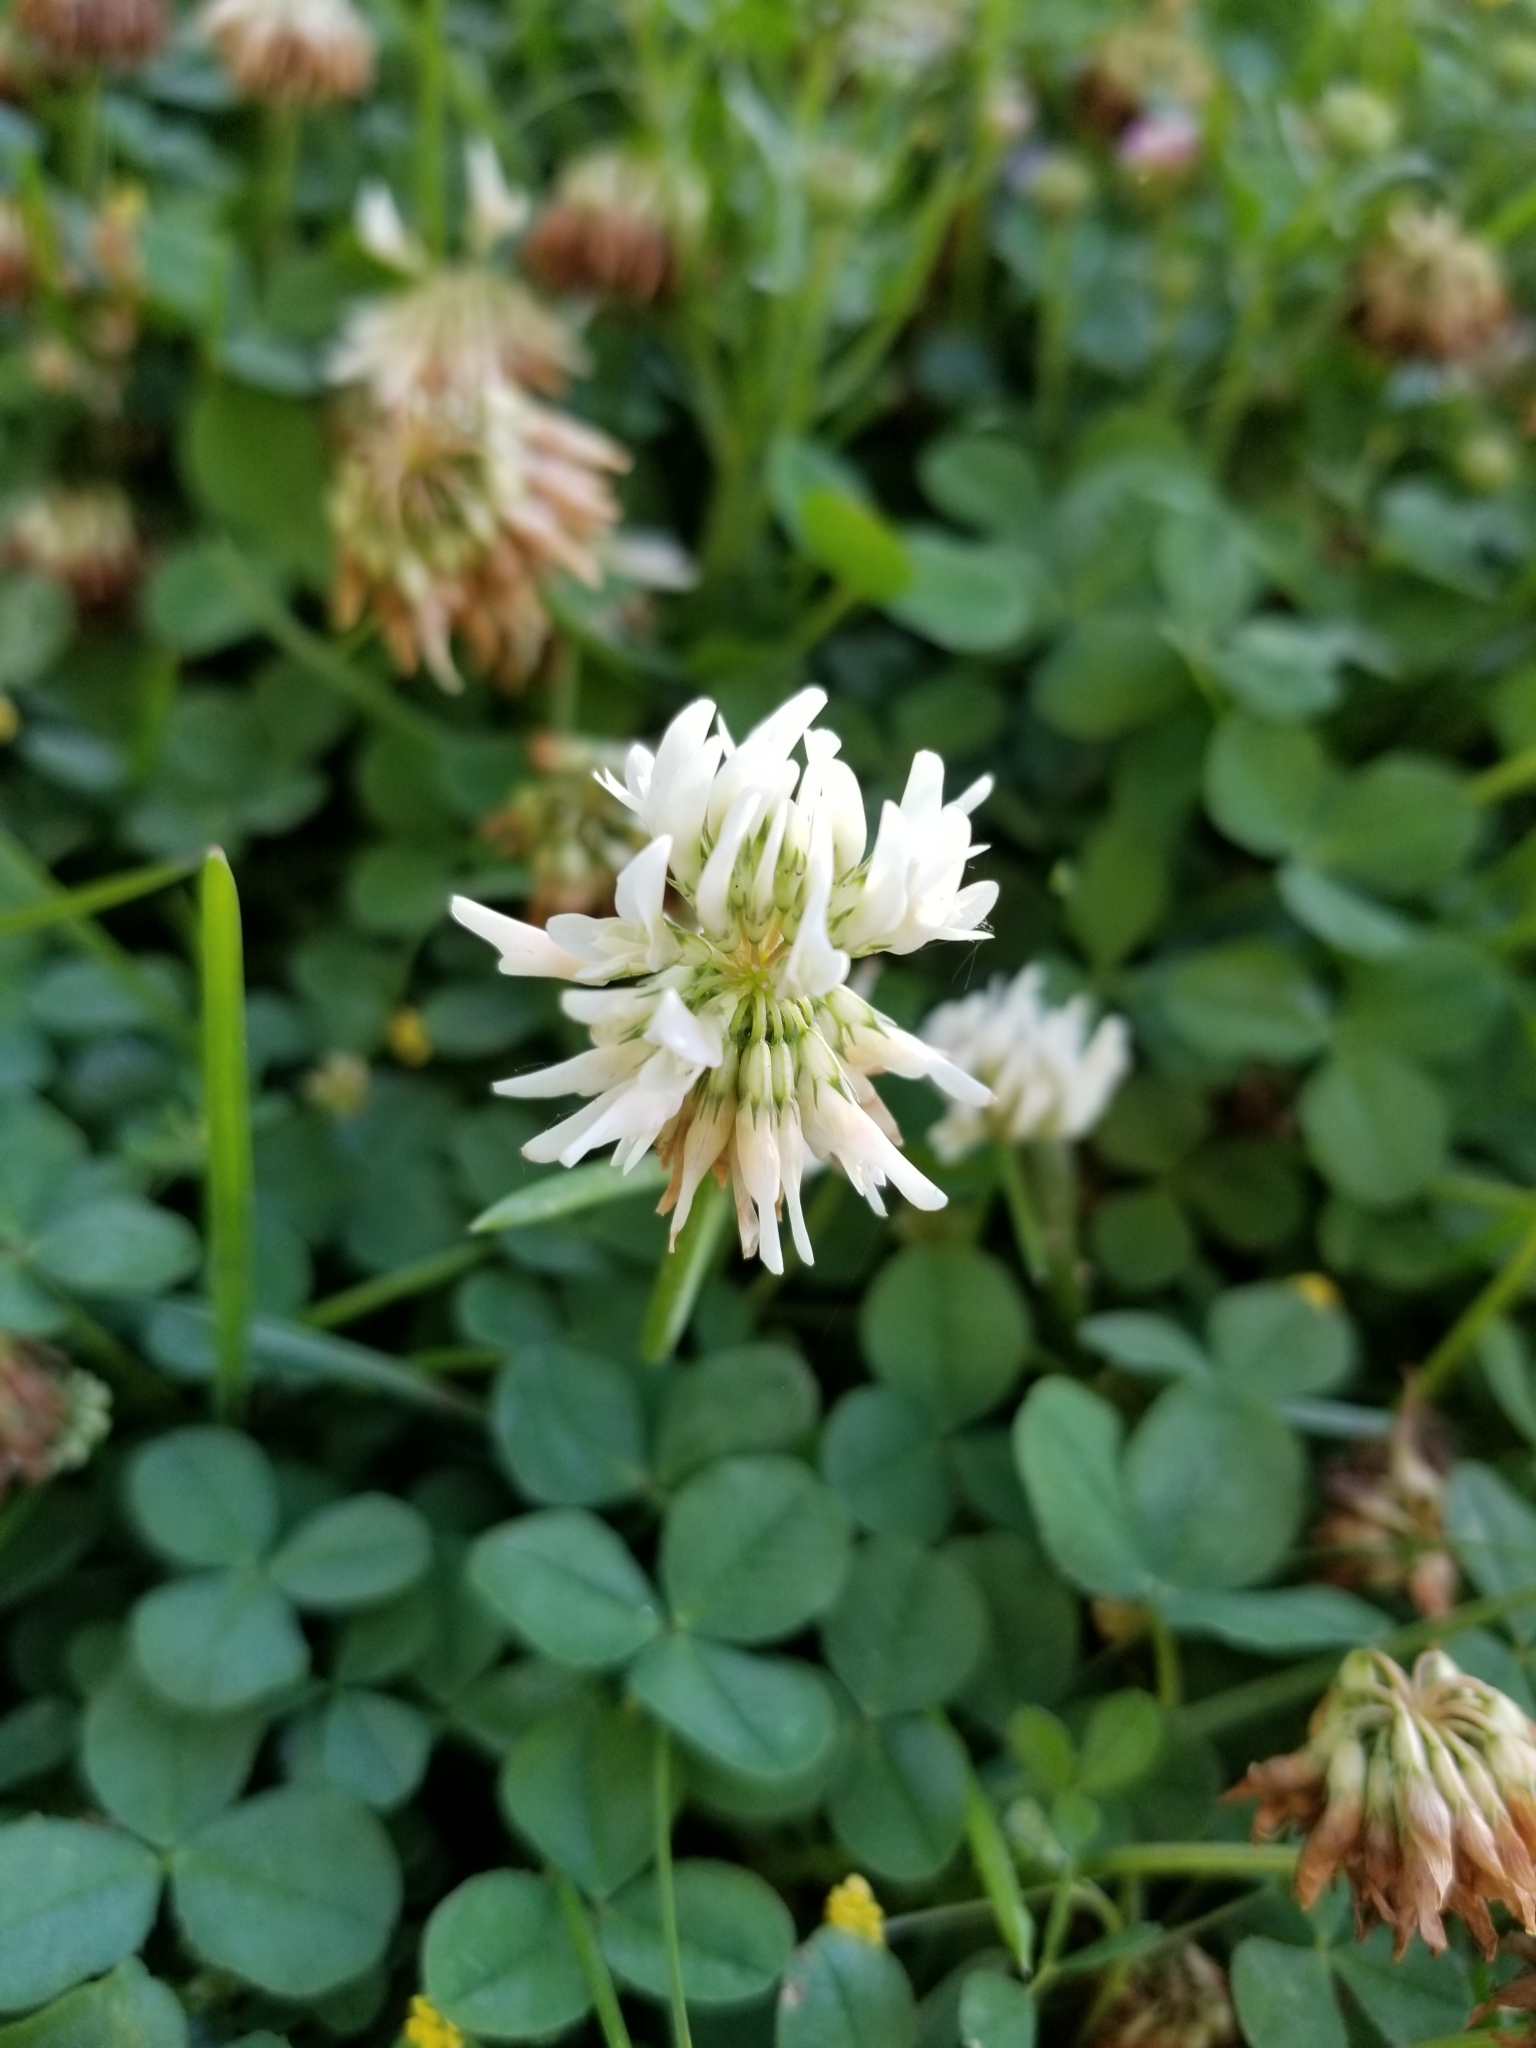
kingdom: Plantae
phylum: Tracheophyta
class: Magnoliopsida
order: Fabales
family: Fabaceae
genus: Trifolium
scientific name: Trifolium repens
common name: White clover
